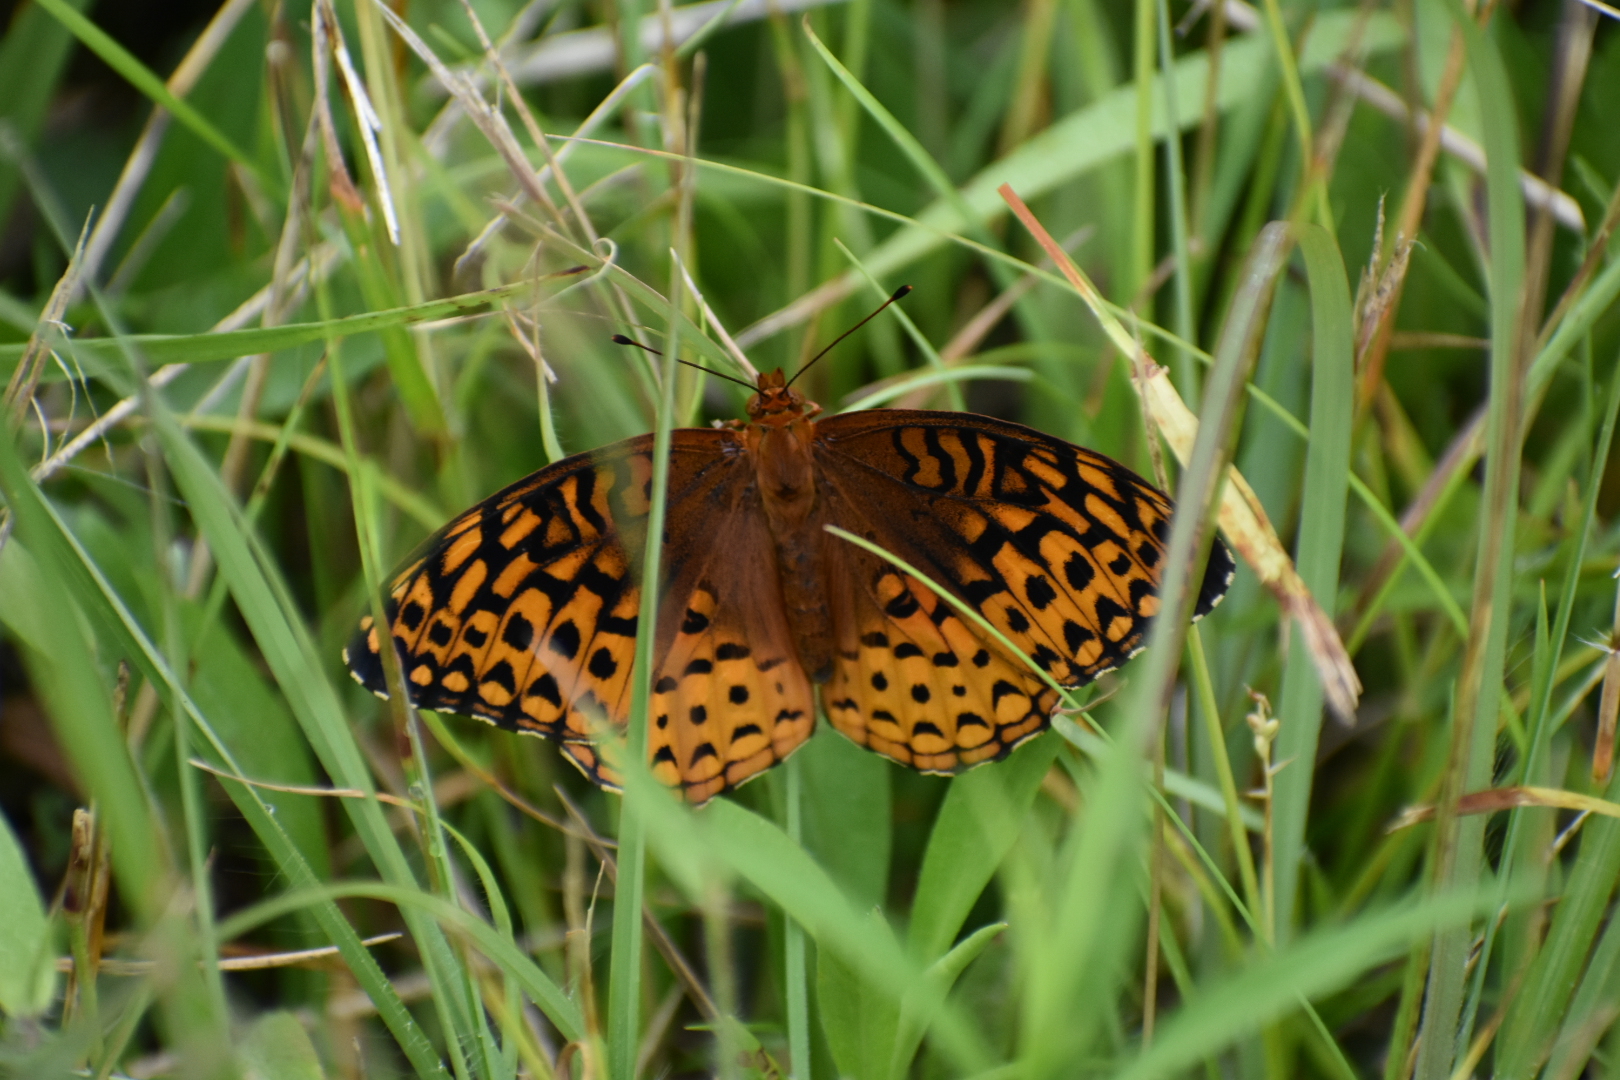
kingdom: Animalia
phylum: Arthropoda
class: Insecta
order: Lepidoptera
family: Nymphalidae
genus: Speyeria
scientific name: Speyeria aphrodite
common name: Aphrodite friitllary
